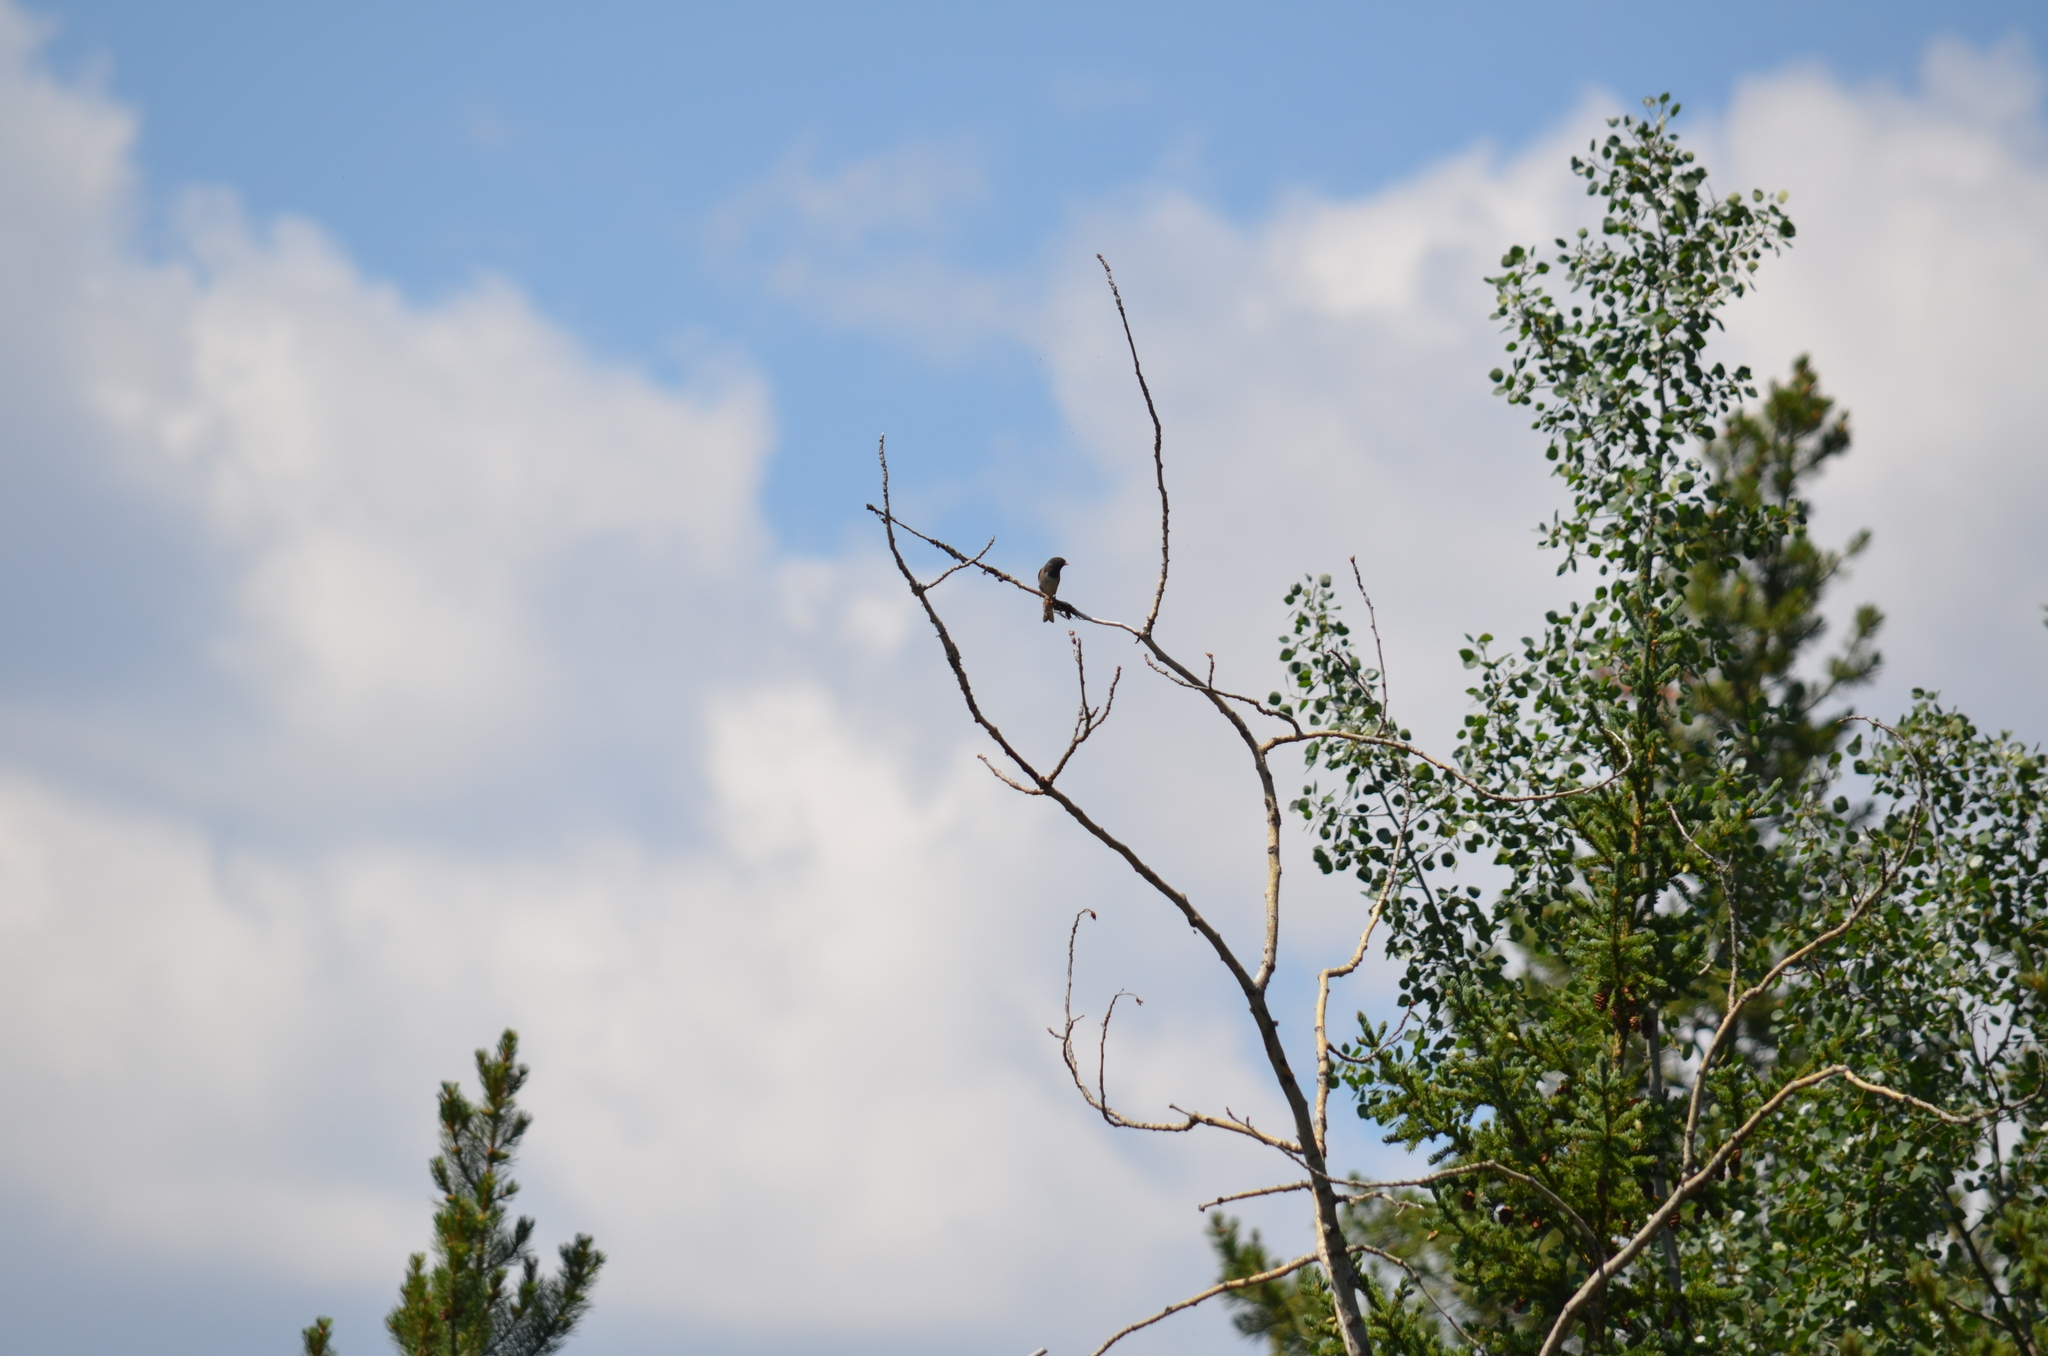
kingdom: Animalia
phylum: Chordata
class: Aves
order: Passeriformes
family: Passerellidae
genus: Junco
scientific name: Junco hyemalis
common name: Dark-eyed junco
